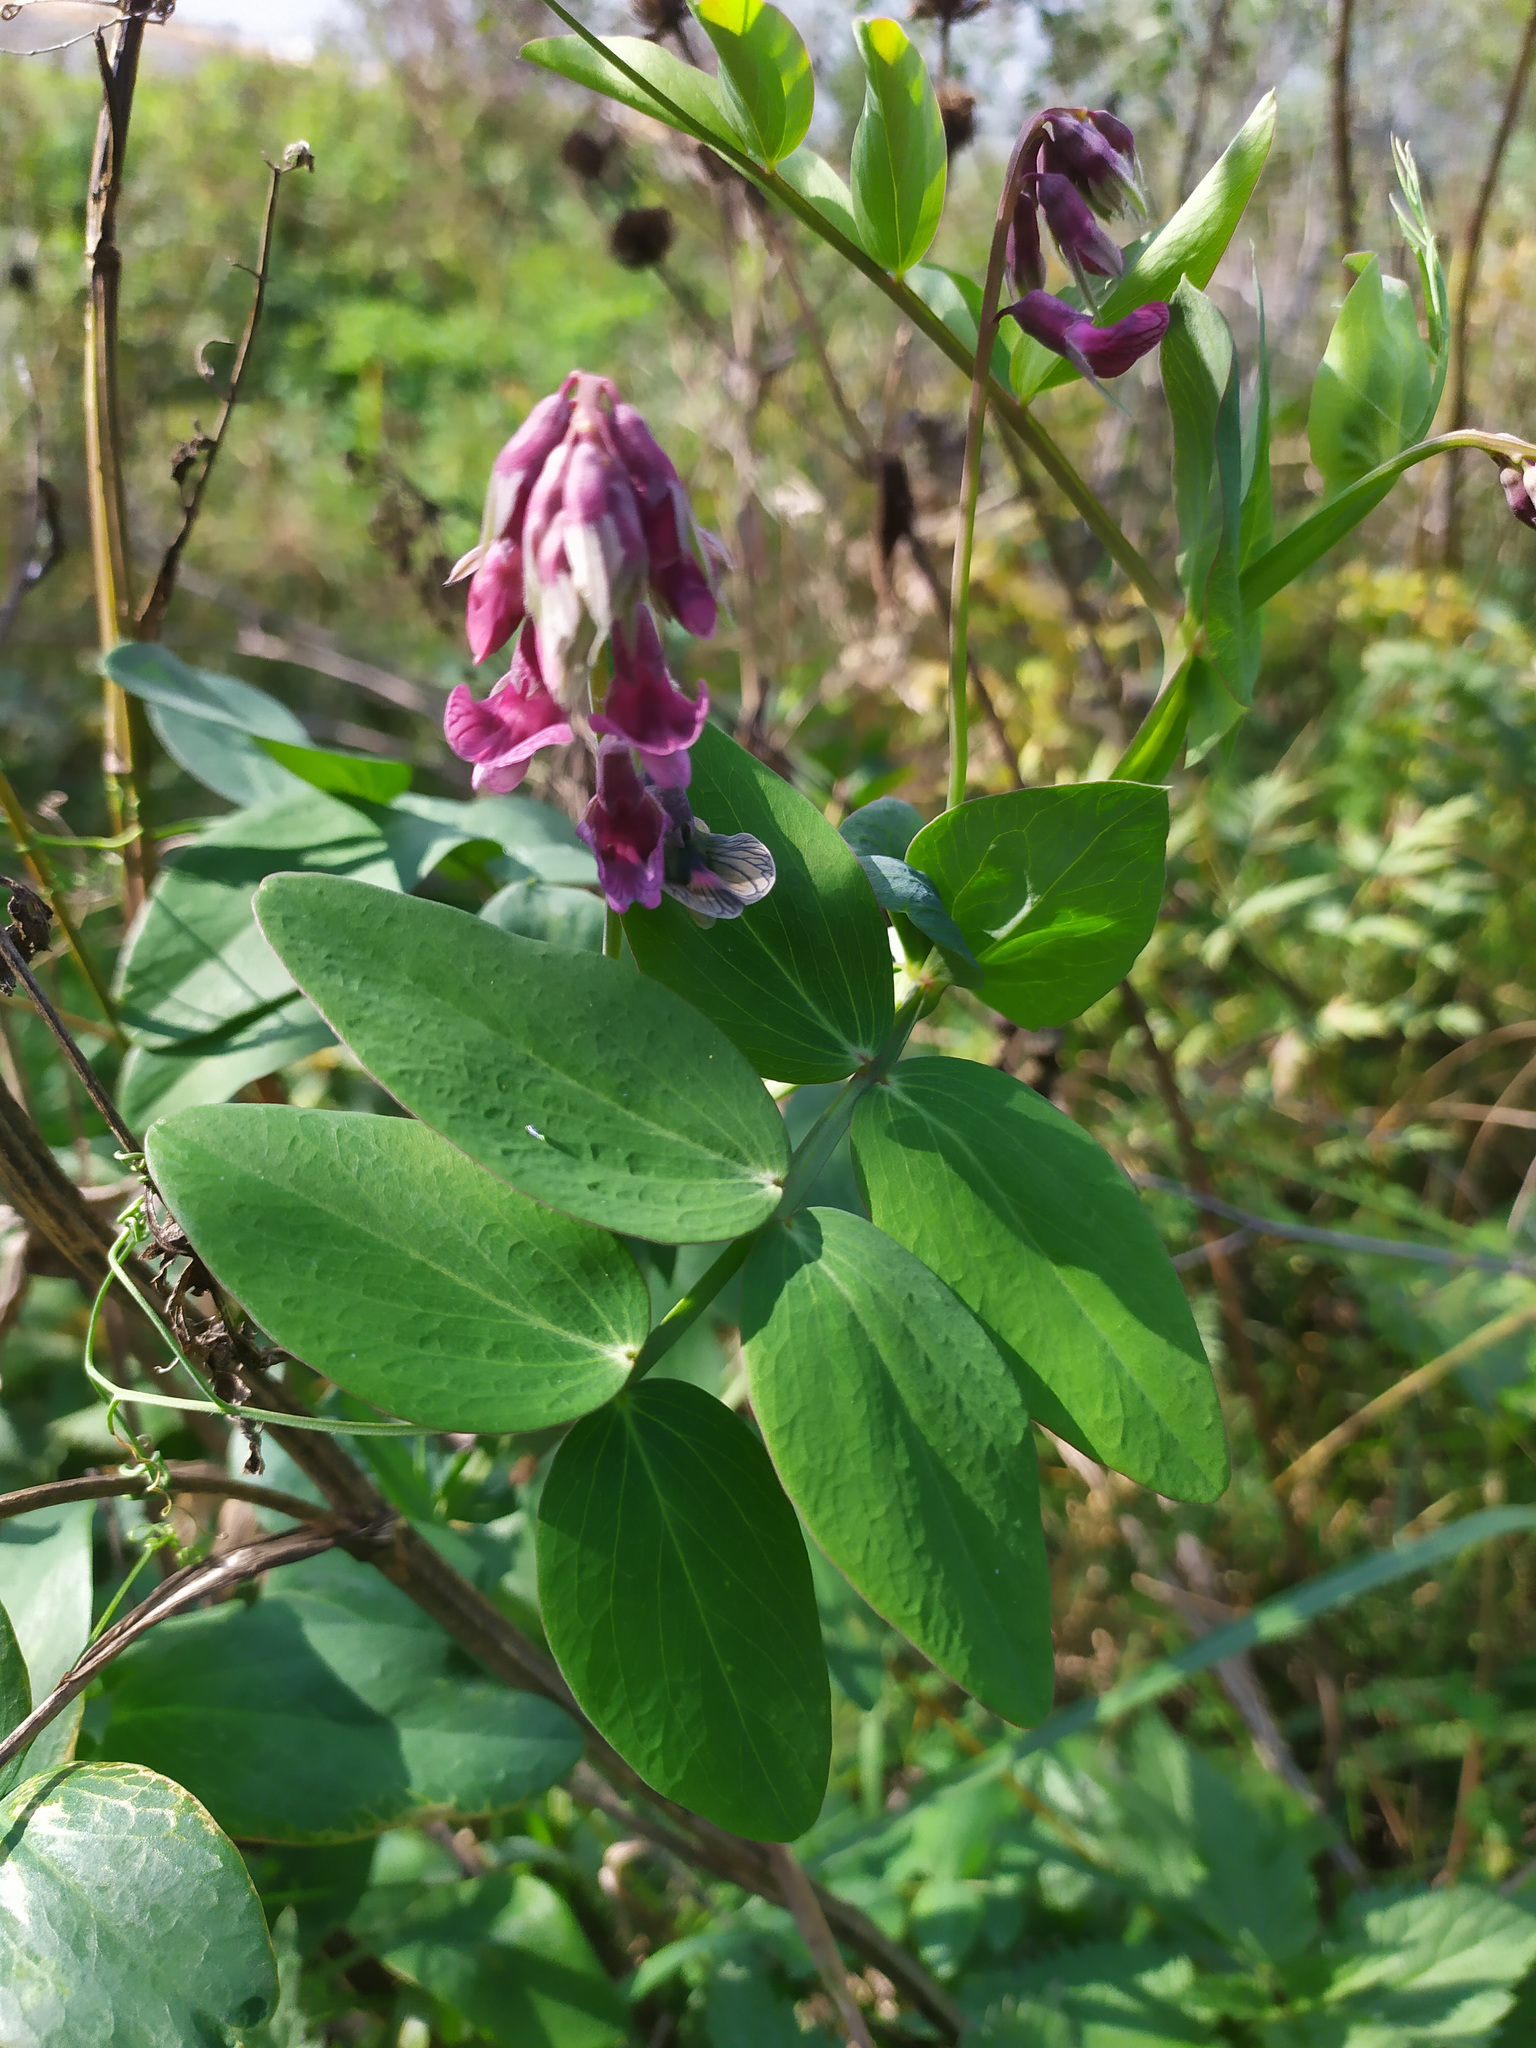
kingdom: Plantae
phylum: Tracheophyta
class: Magnoliopsida
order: Fabales
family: Fabaceae
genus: Lathyrus
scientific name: Lathyrus pisiformis
